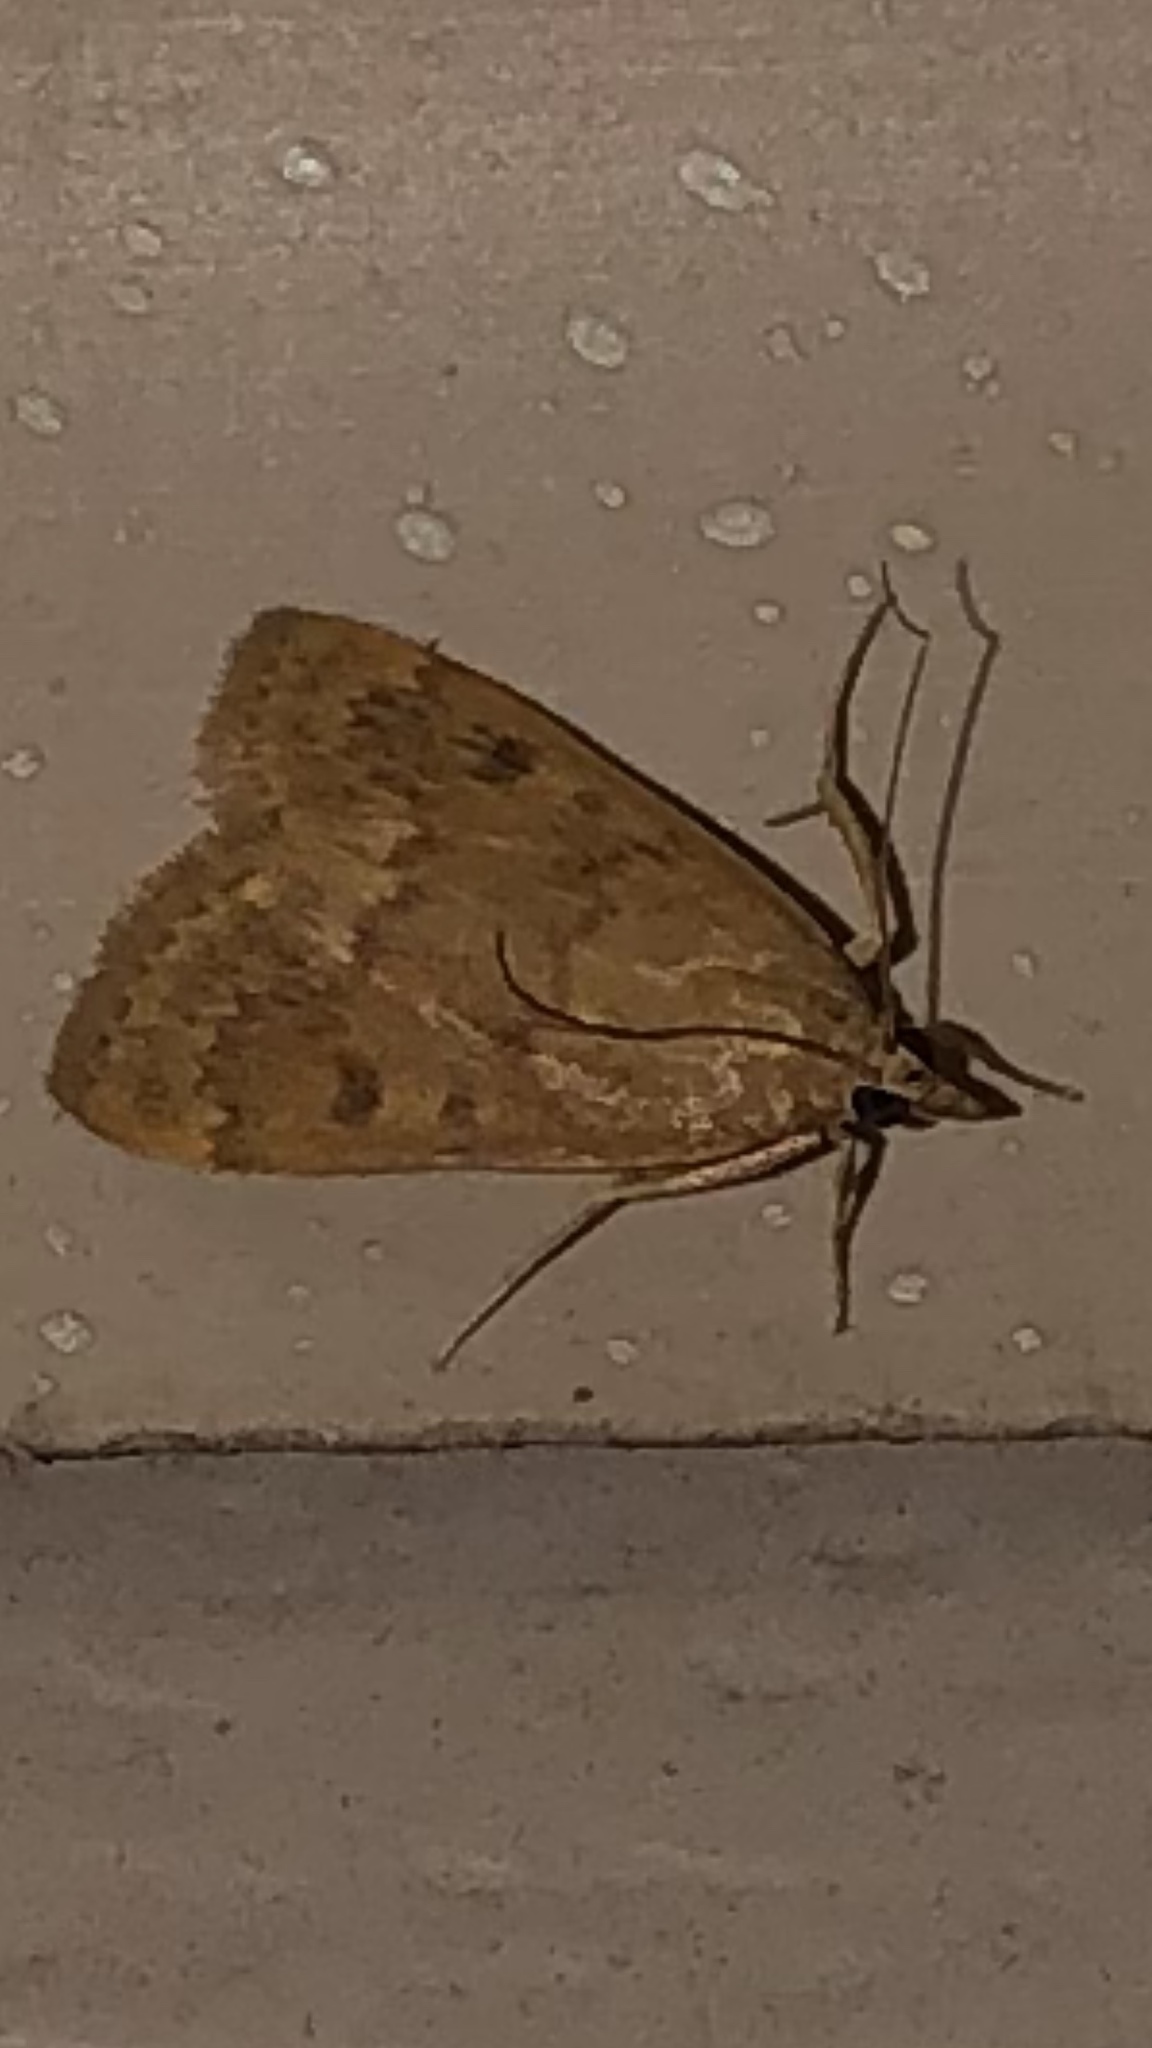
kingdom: Animalia
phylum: Arthropoda
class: Insecta
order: Lepidoptera
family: Crambidae
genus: Achyra
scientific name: Achyra rantalis
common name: Garden webworm
